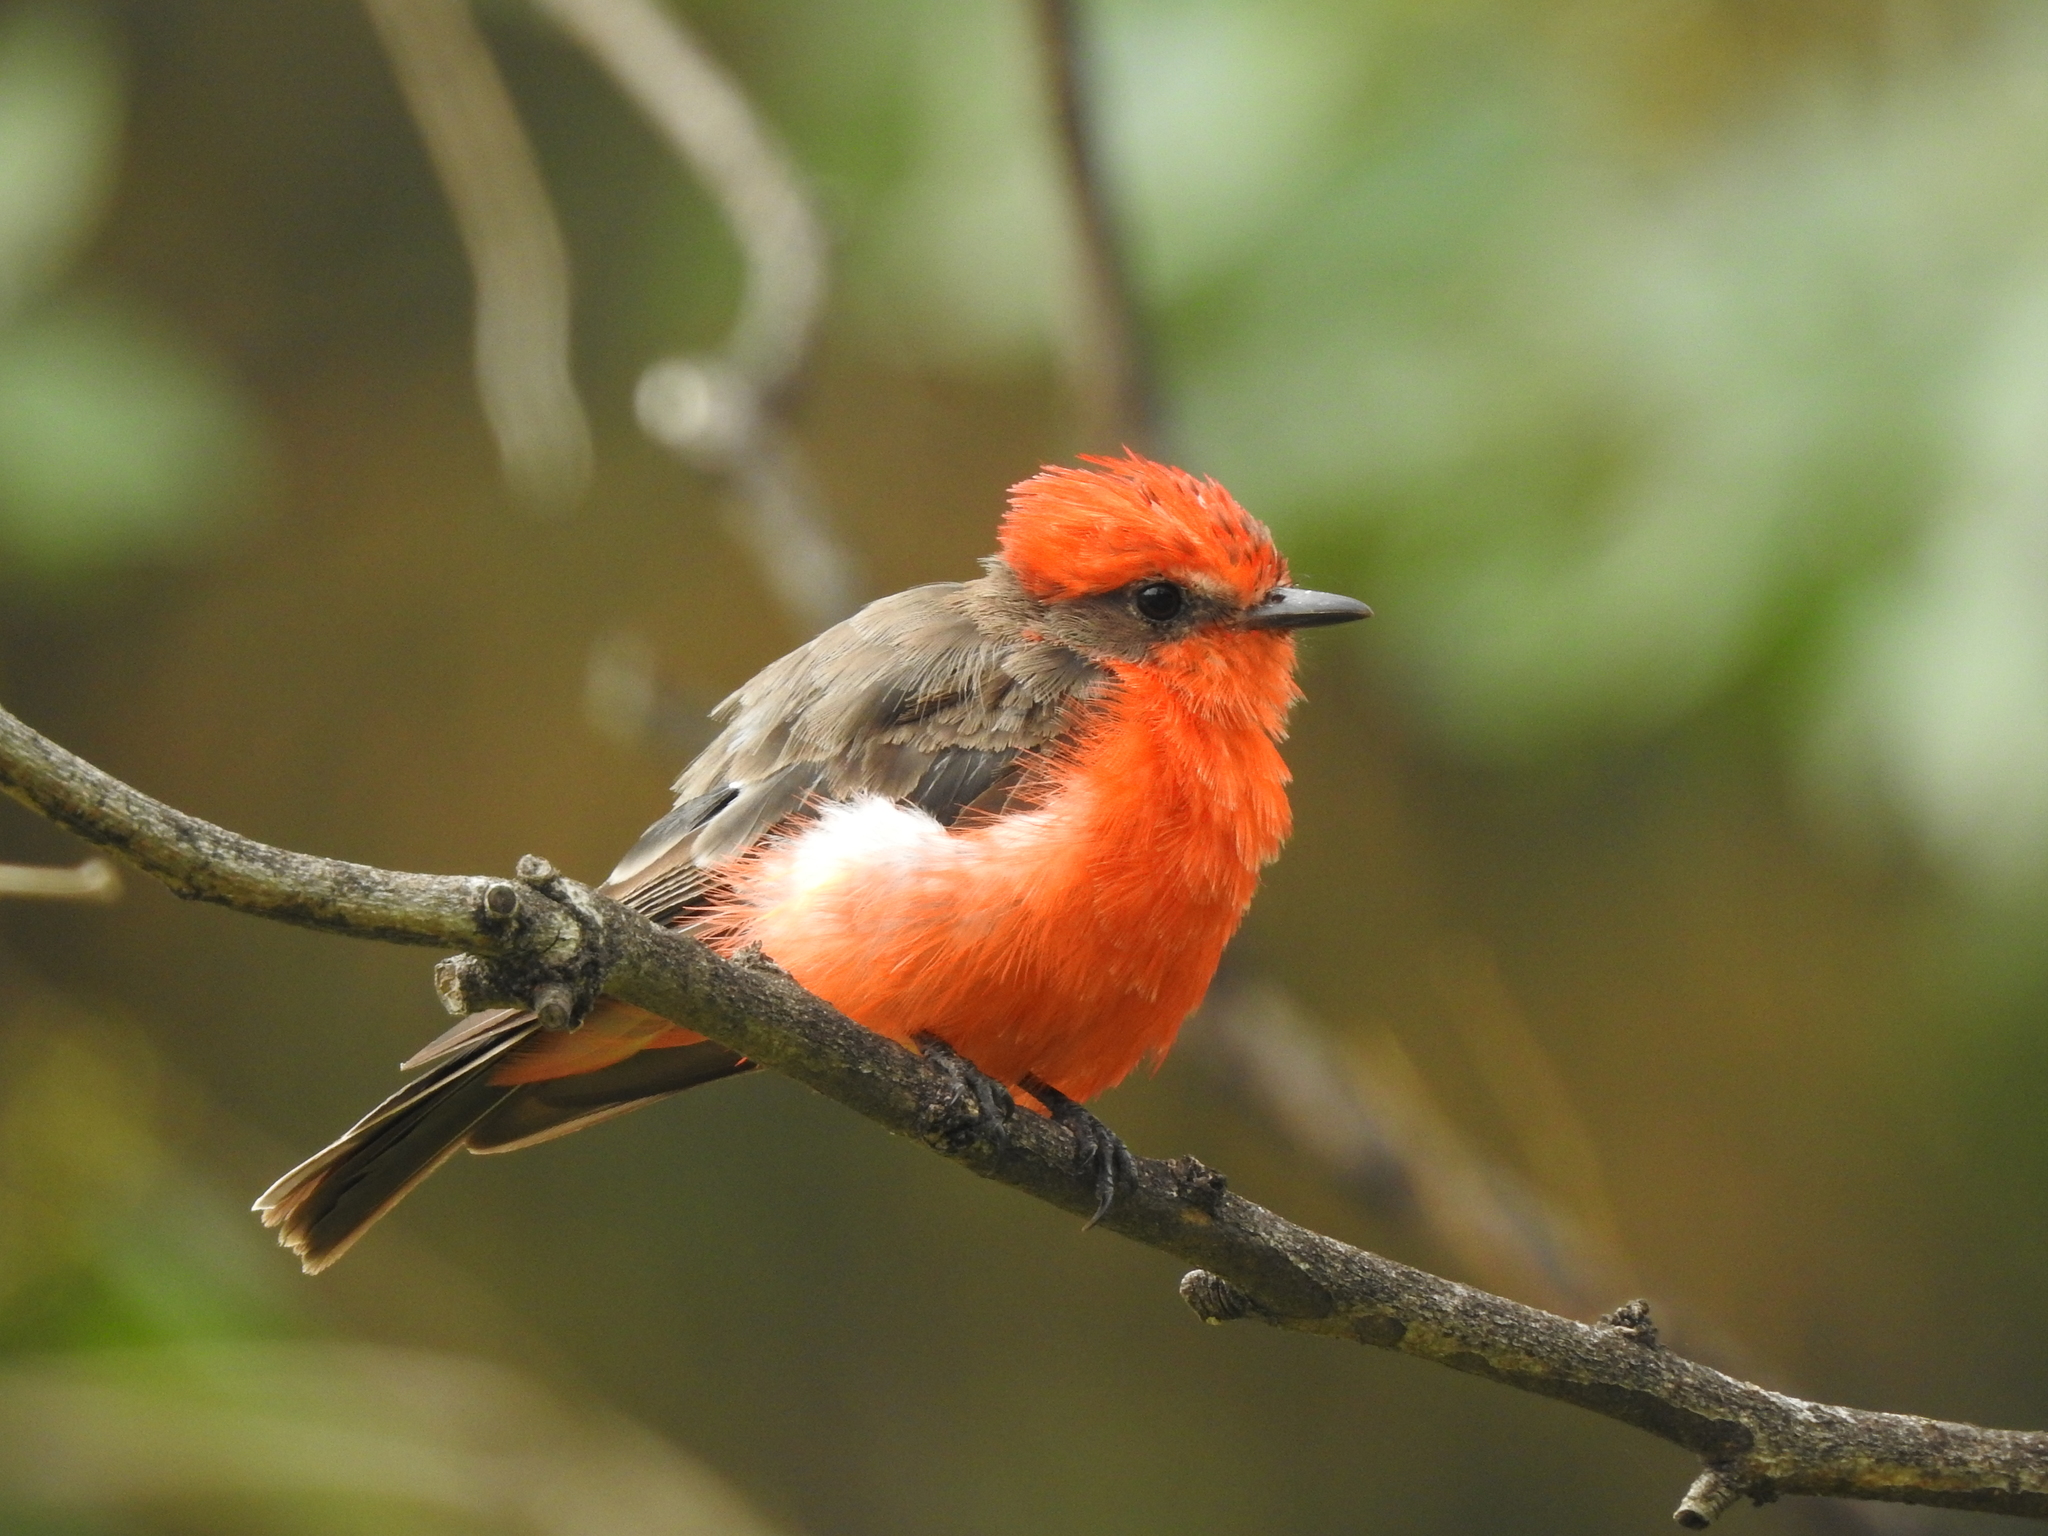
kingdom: Animalia
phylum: Chordata
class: Aves
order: Passeriformes
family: Tyrannidae
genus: Pyrocephalus
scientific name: Pyrocephalus rubinus
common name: Vermilion flycatcher
